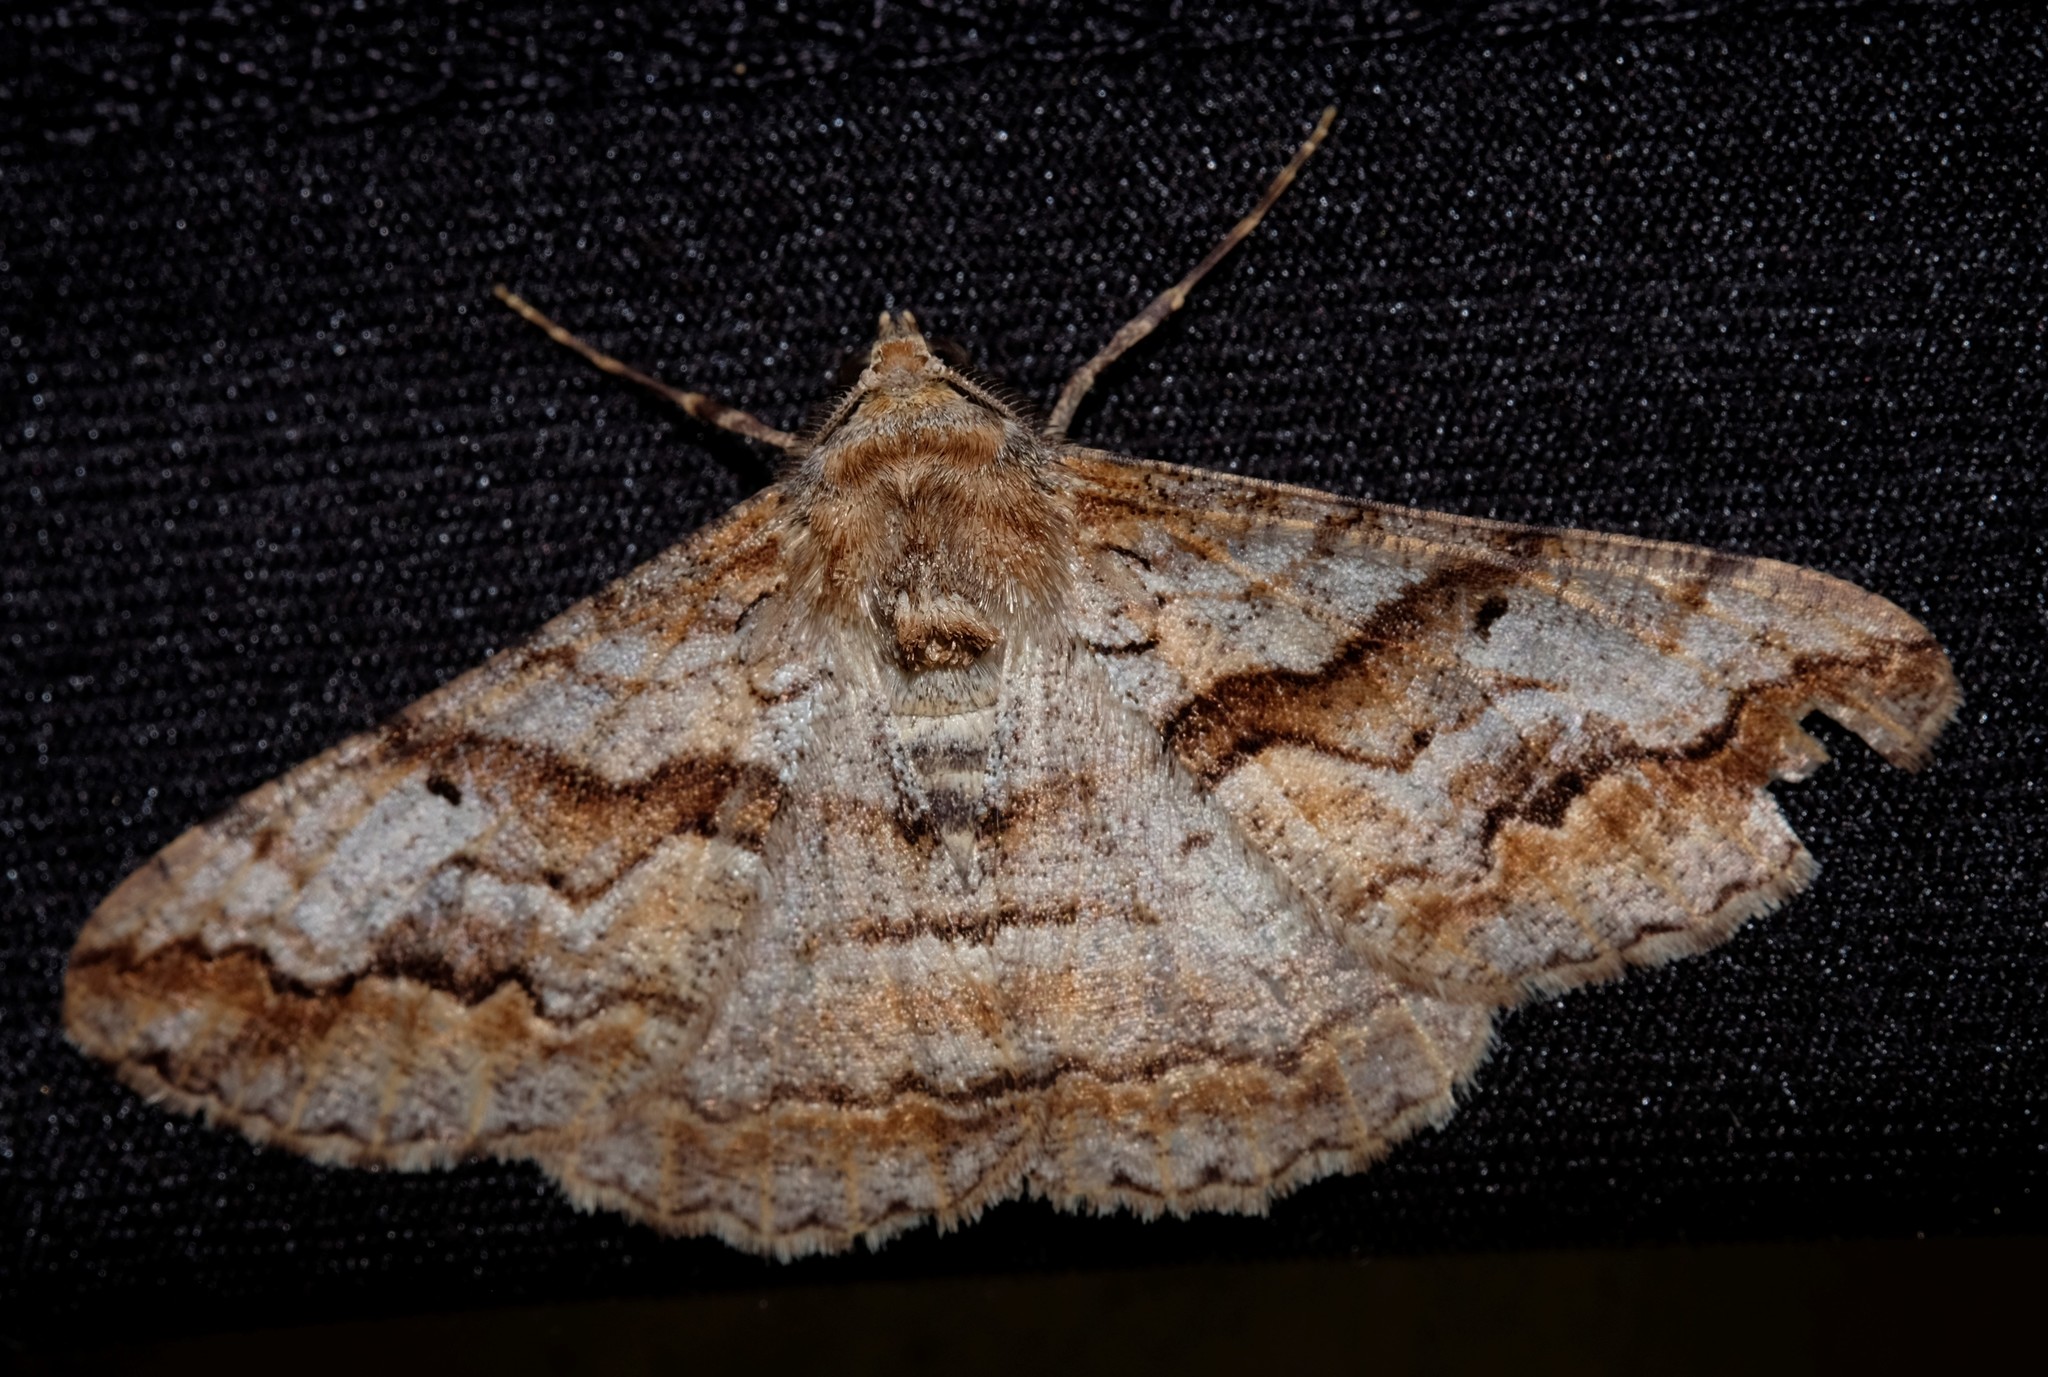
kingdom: Animalia
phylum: Arthropoda
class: Insecta
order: Lepidoptera
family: Geometridae
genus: Gastrinodes
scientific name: Gastrinodes bitaeniaria
